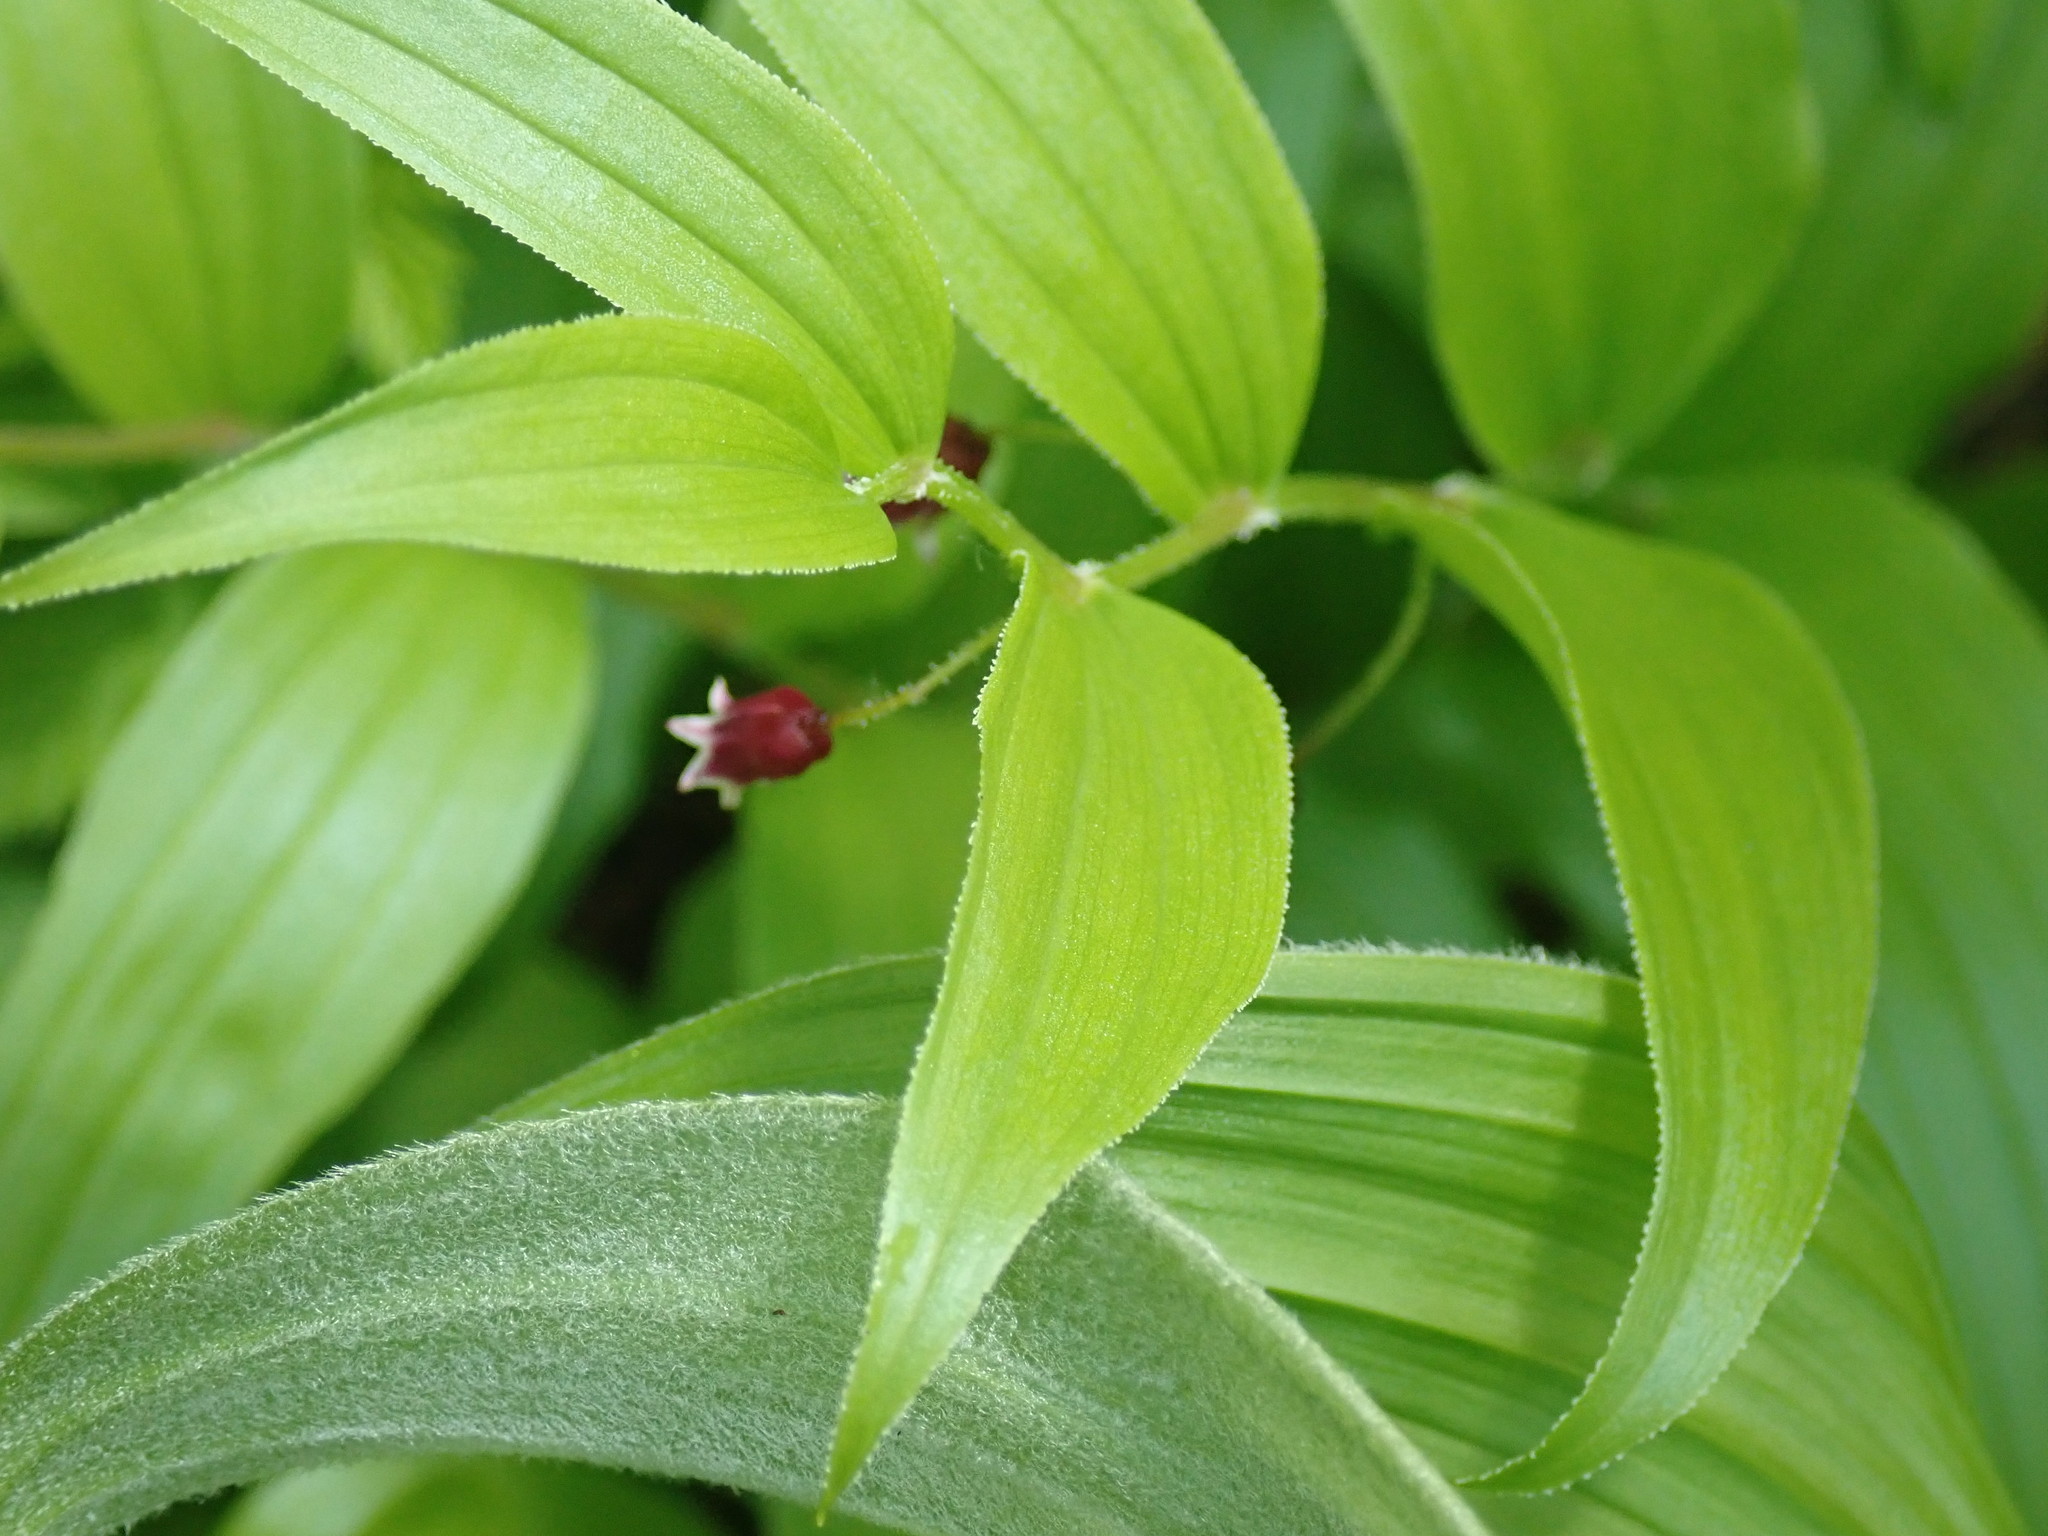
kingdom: Plantae
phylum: Tracheophyta
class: Liliopsida
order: Liliales
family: Liliaceae
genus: Streptopus
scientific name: Streptopus lanceolatus
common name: Rose mandarin
